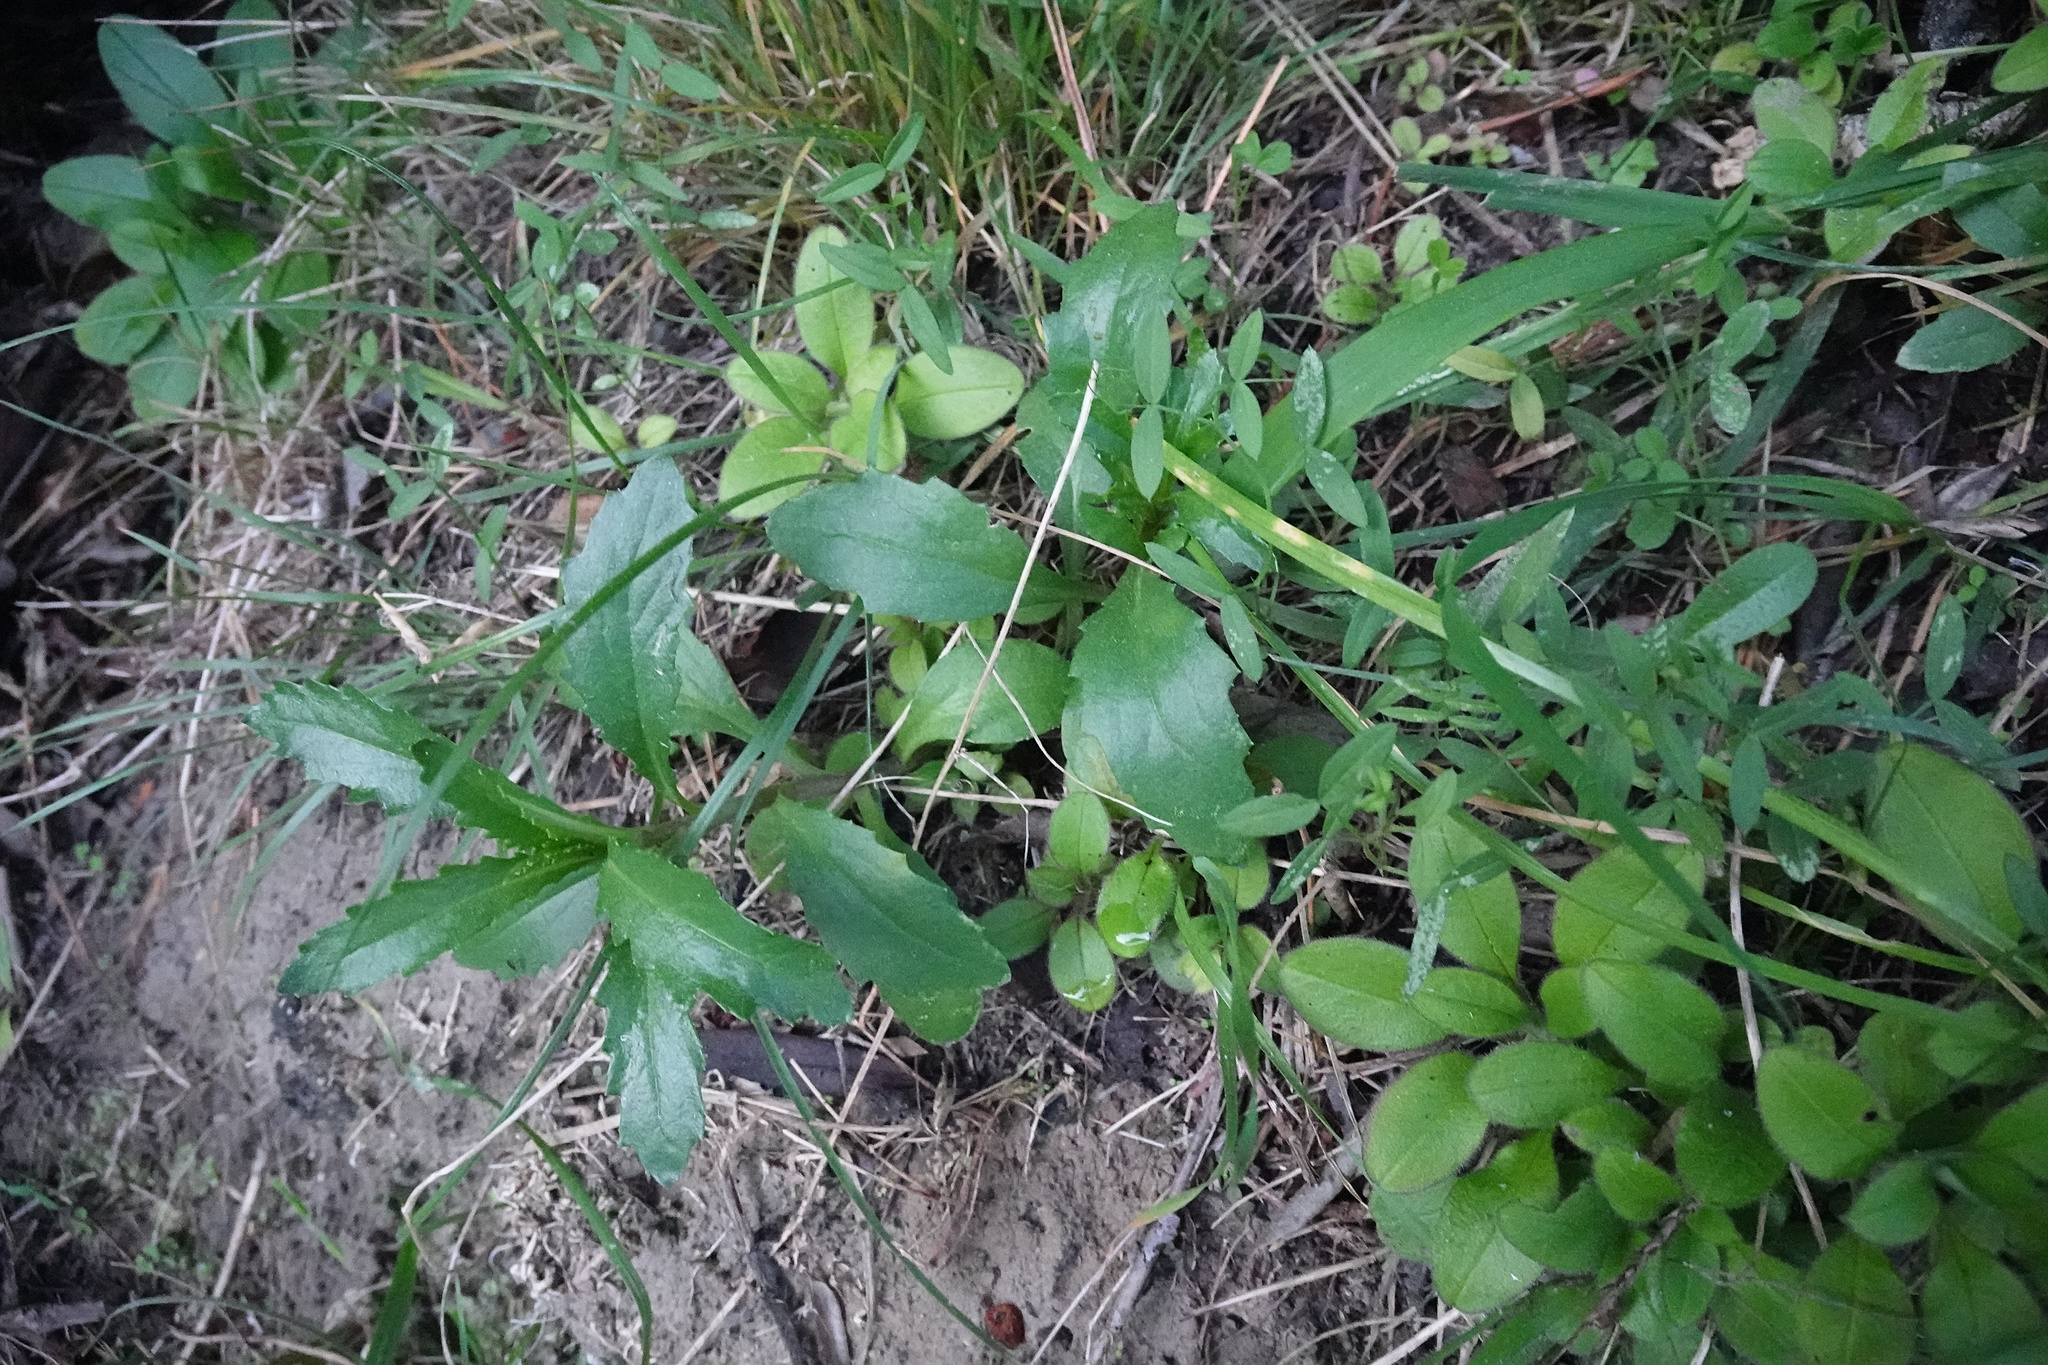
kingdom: Plantae
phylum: Tracheophyta
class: Magnoliopsida
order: Asterales
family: Asteraceae
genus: Senecio
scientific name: Senecio matatini
